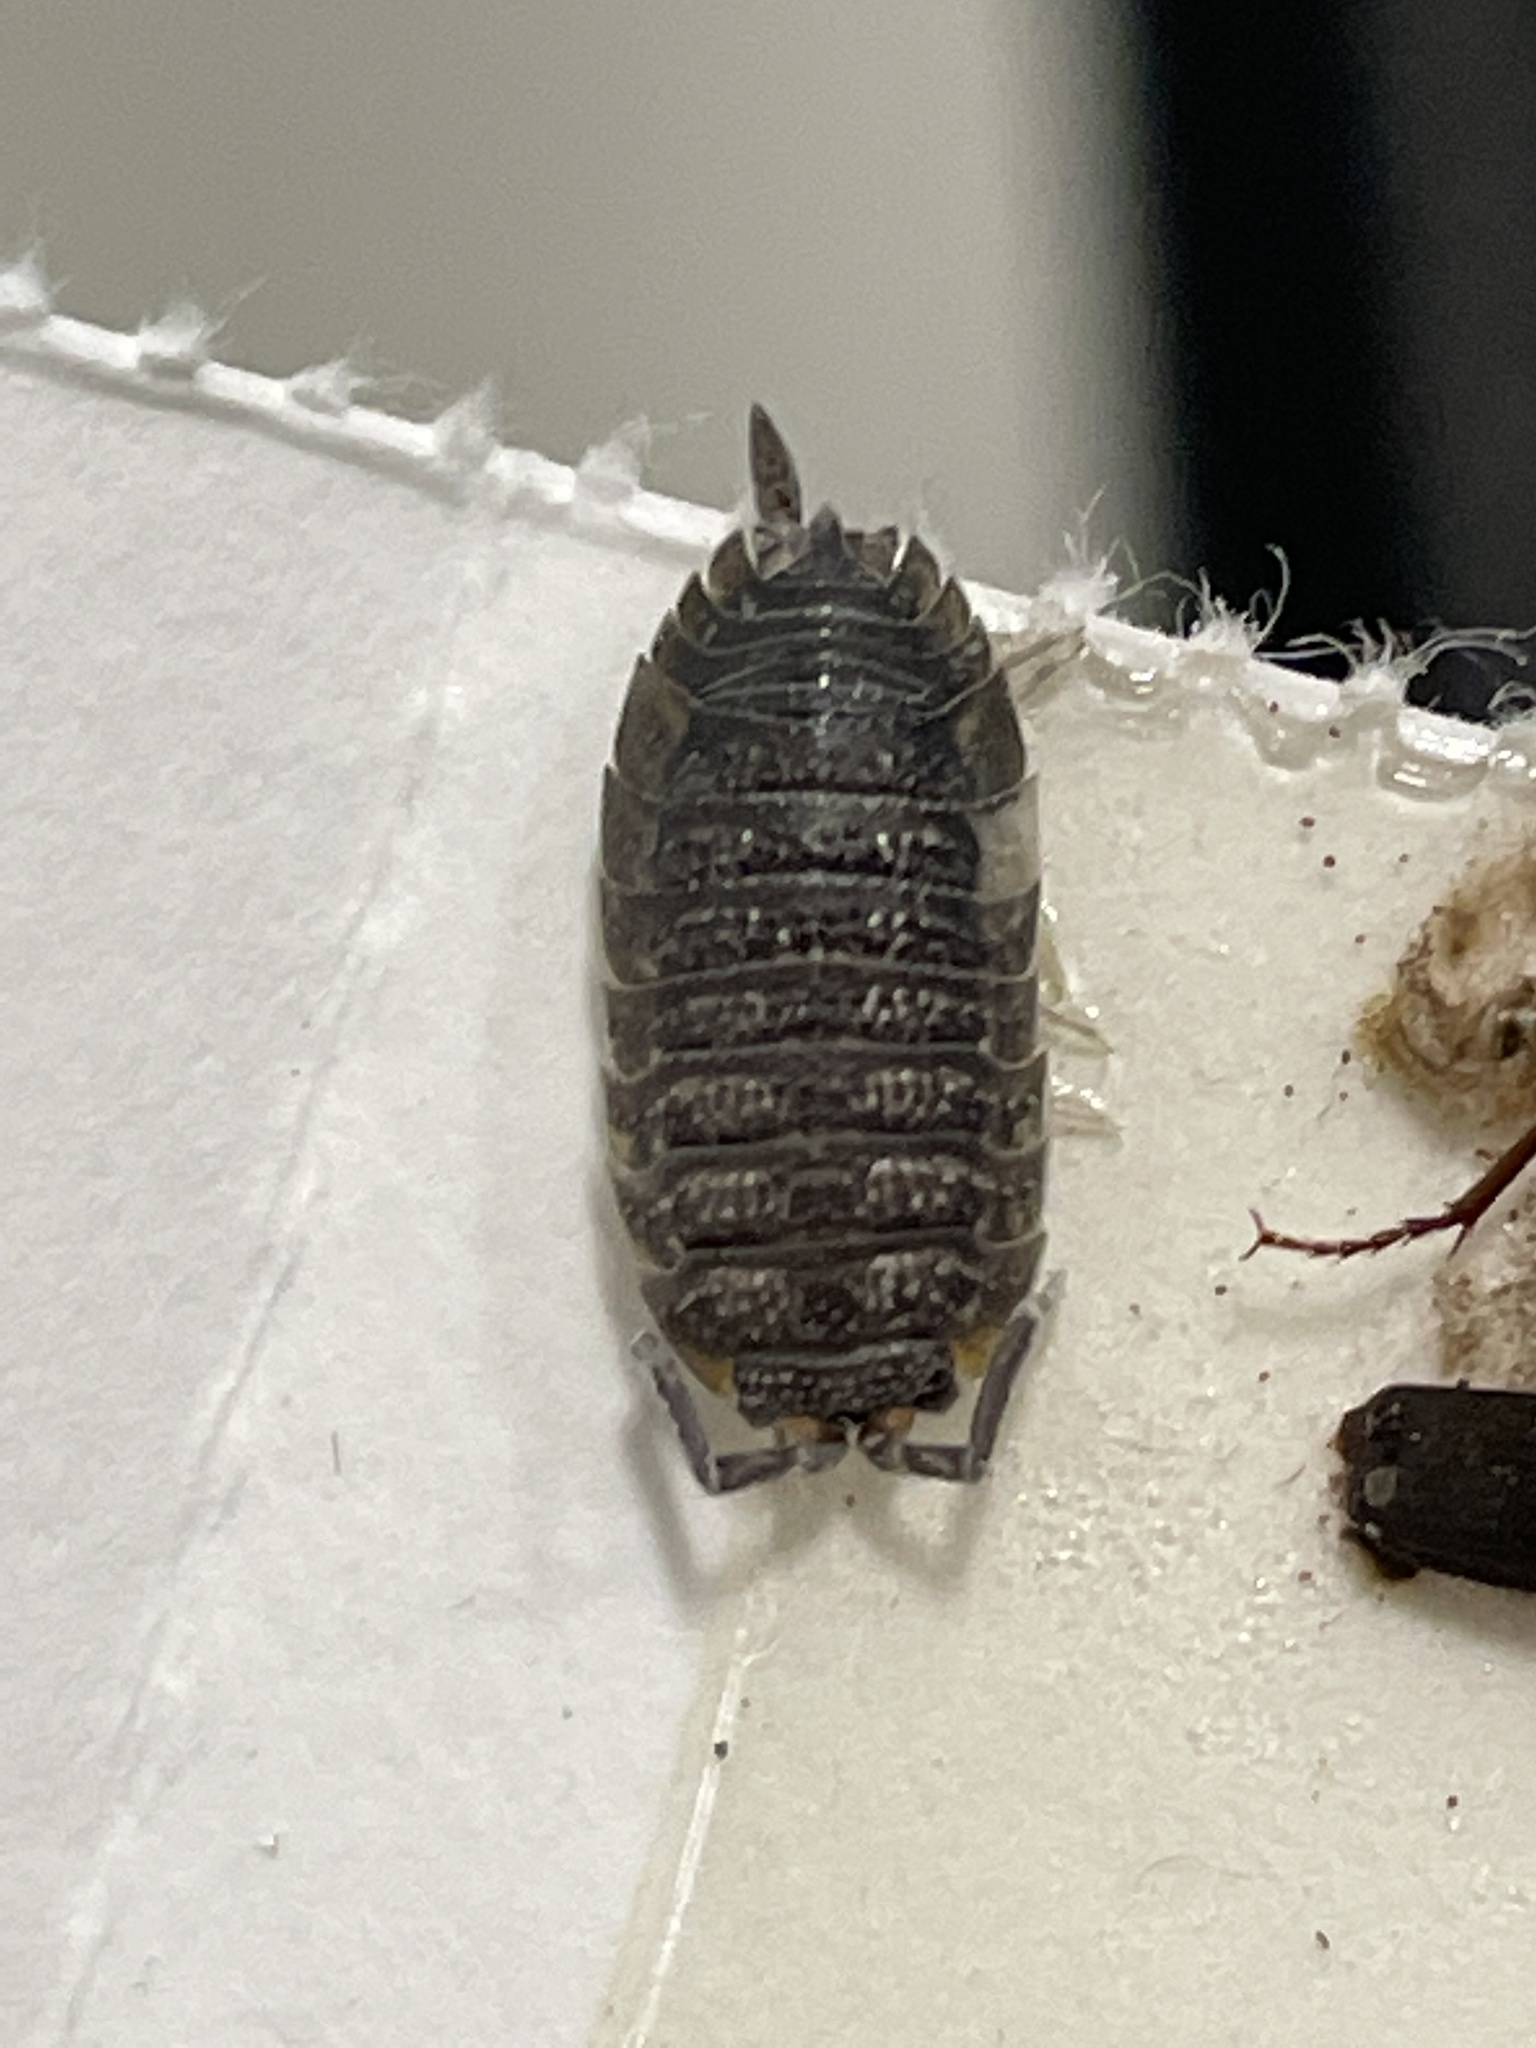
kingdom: Animalia
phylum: Arthropoda
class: Malacostraca
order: Isopoda
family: Porcellionidae
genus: Porcellio
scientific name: Porcellio scaber
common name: Common rough woodlouse
